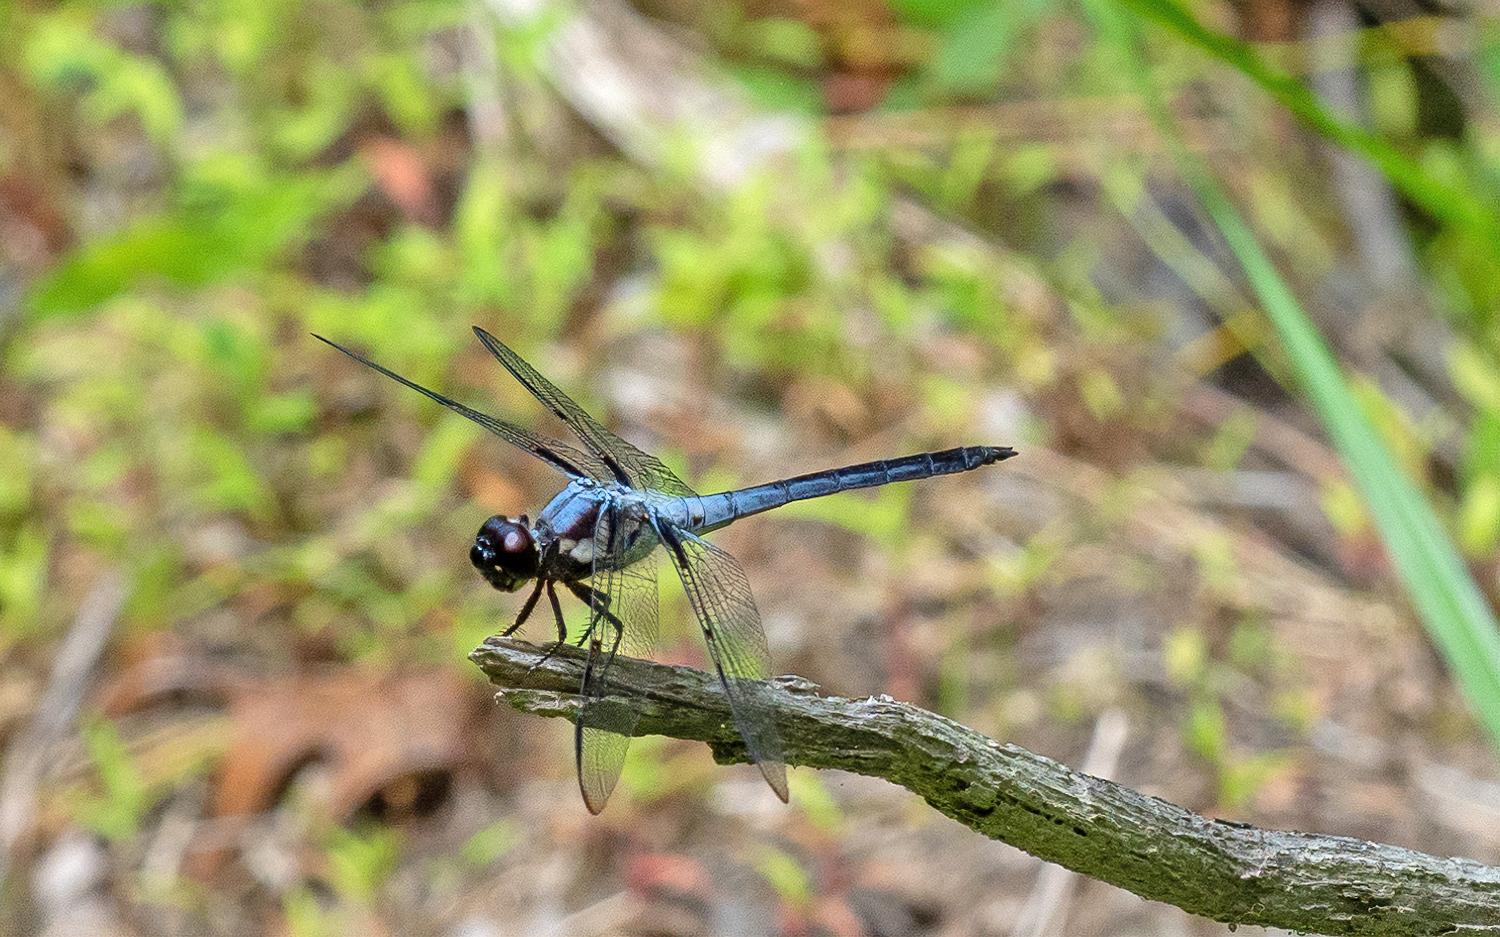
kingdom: Animalia
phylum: Arthropoda
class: Insecta
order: Odonata
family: Libellulidae
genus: Libellula
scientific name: Libellula axilena
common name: Bar-winged skimmer
